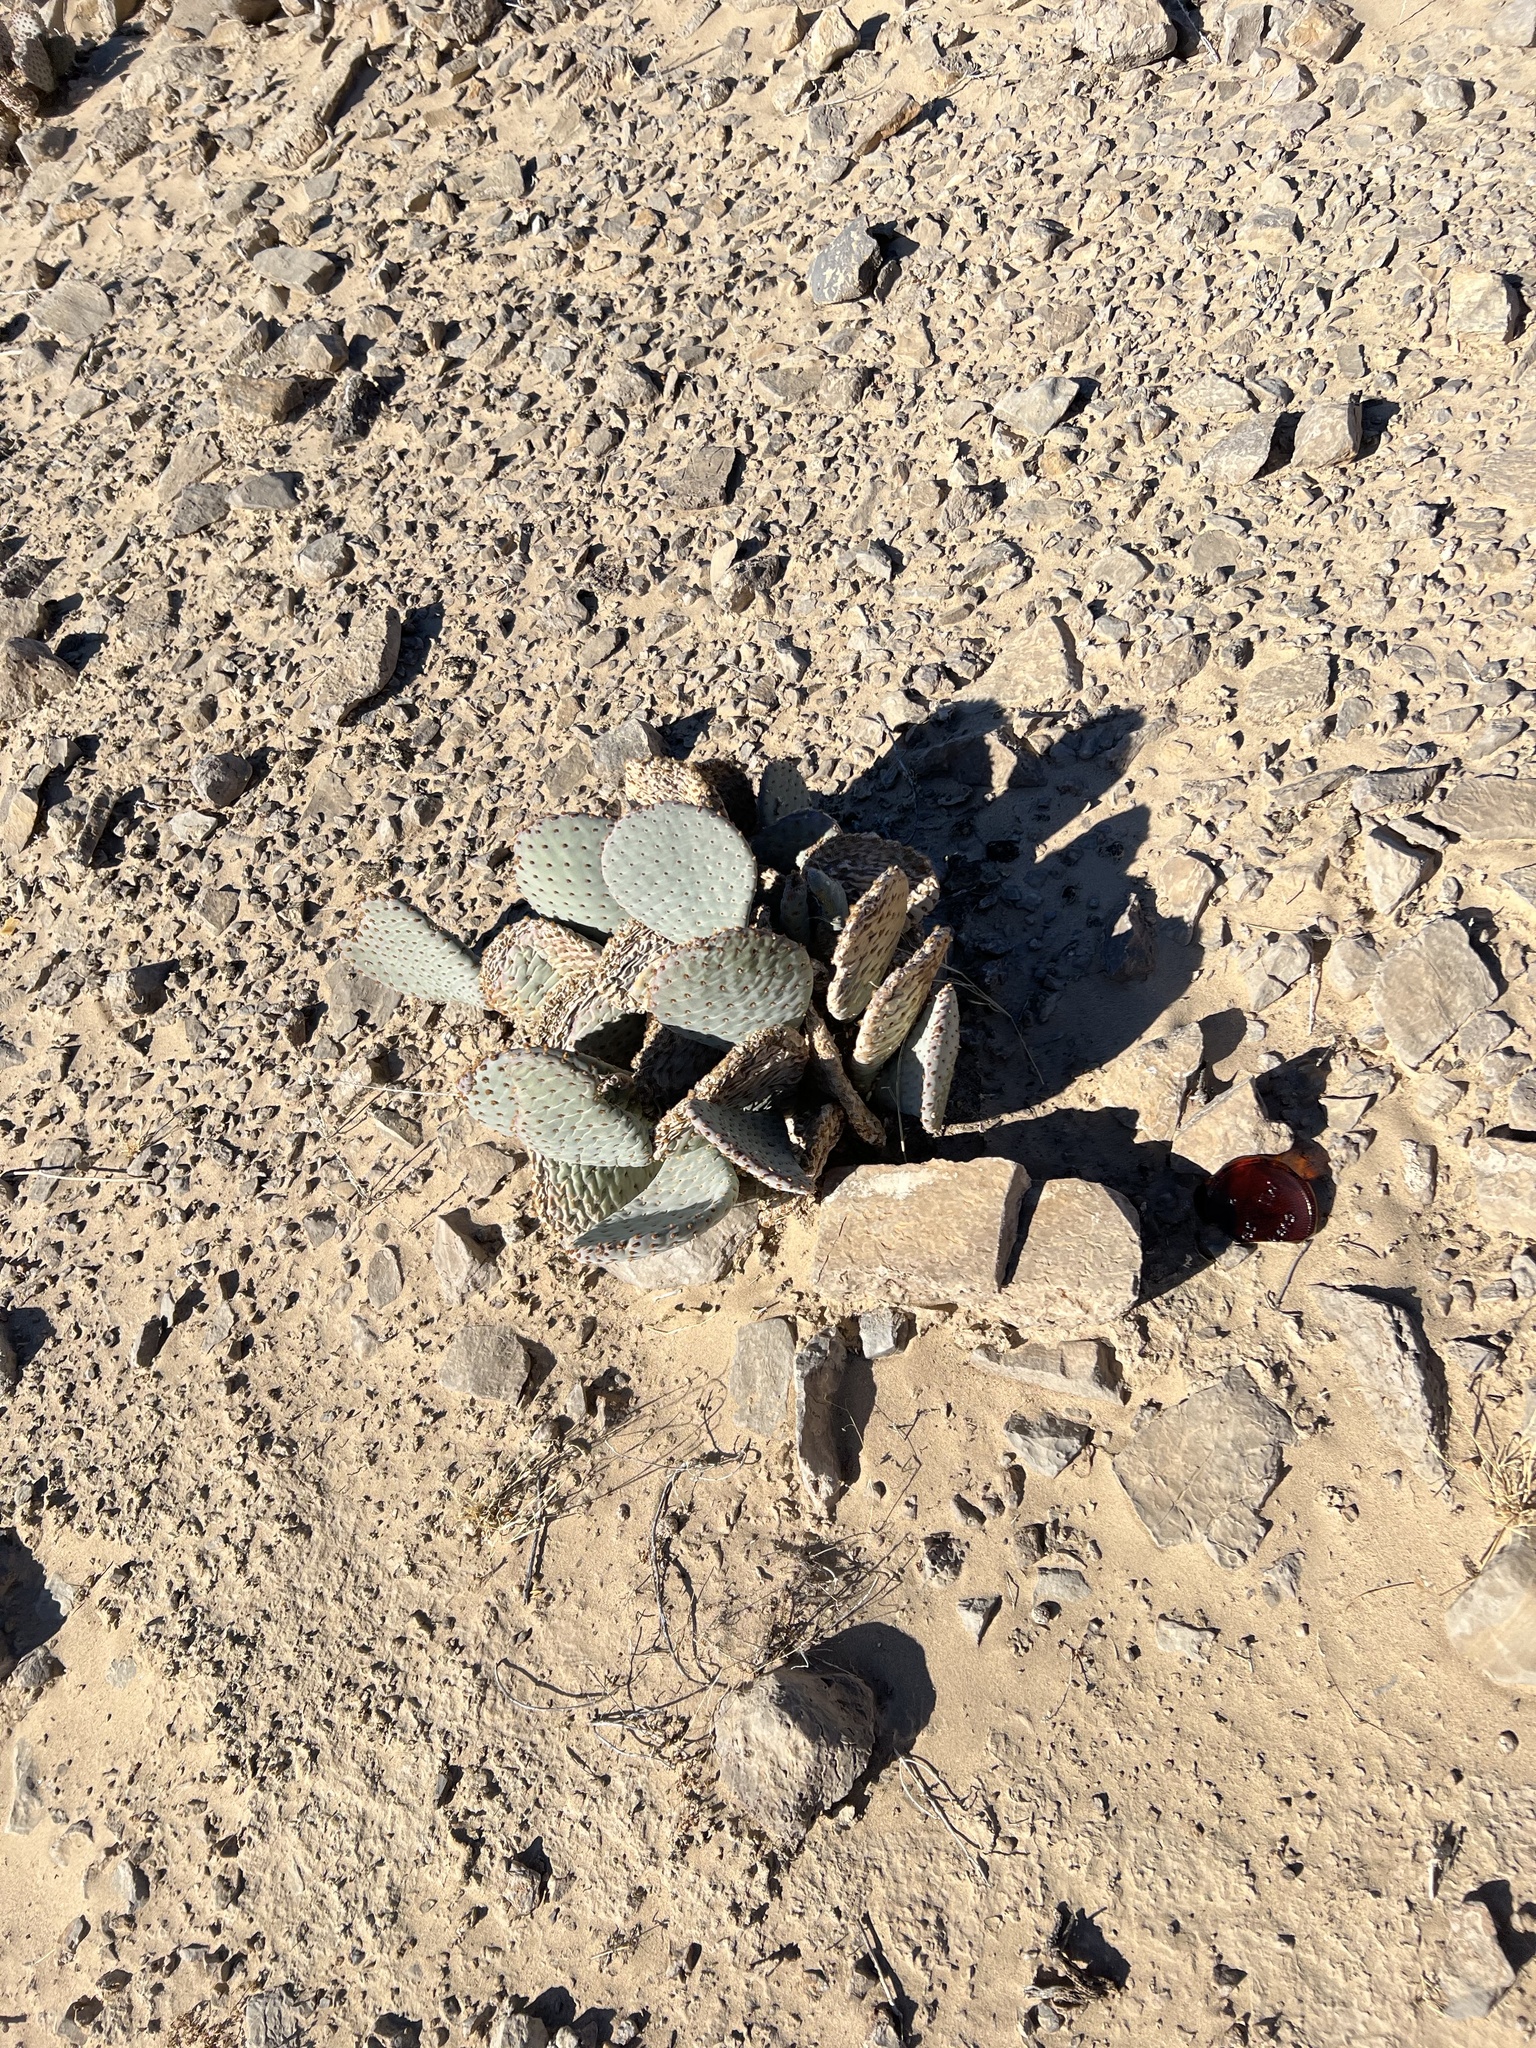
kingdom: Plantae
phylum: Tracheophyta
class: Magnoliopsida
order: Caryophyllales
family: Cactaceae
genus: Opuntia
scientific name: Opuntia basilaris
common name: Beavertail prickly-pear
